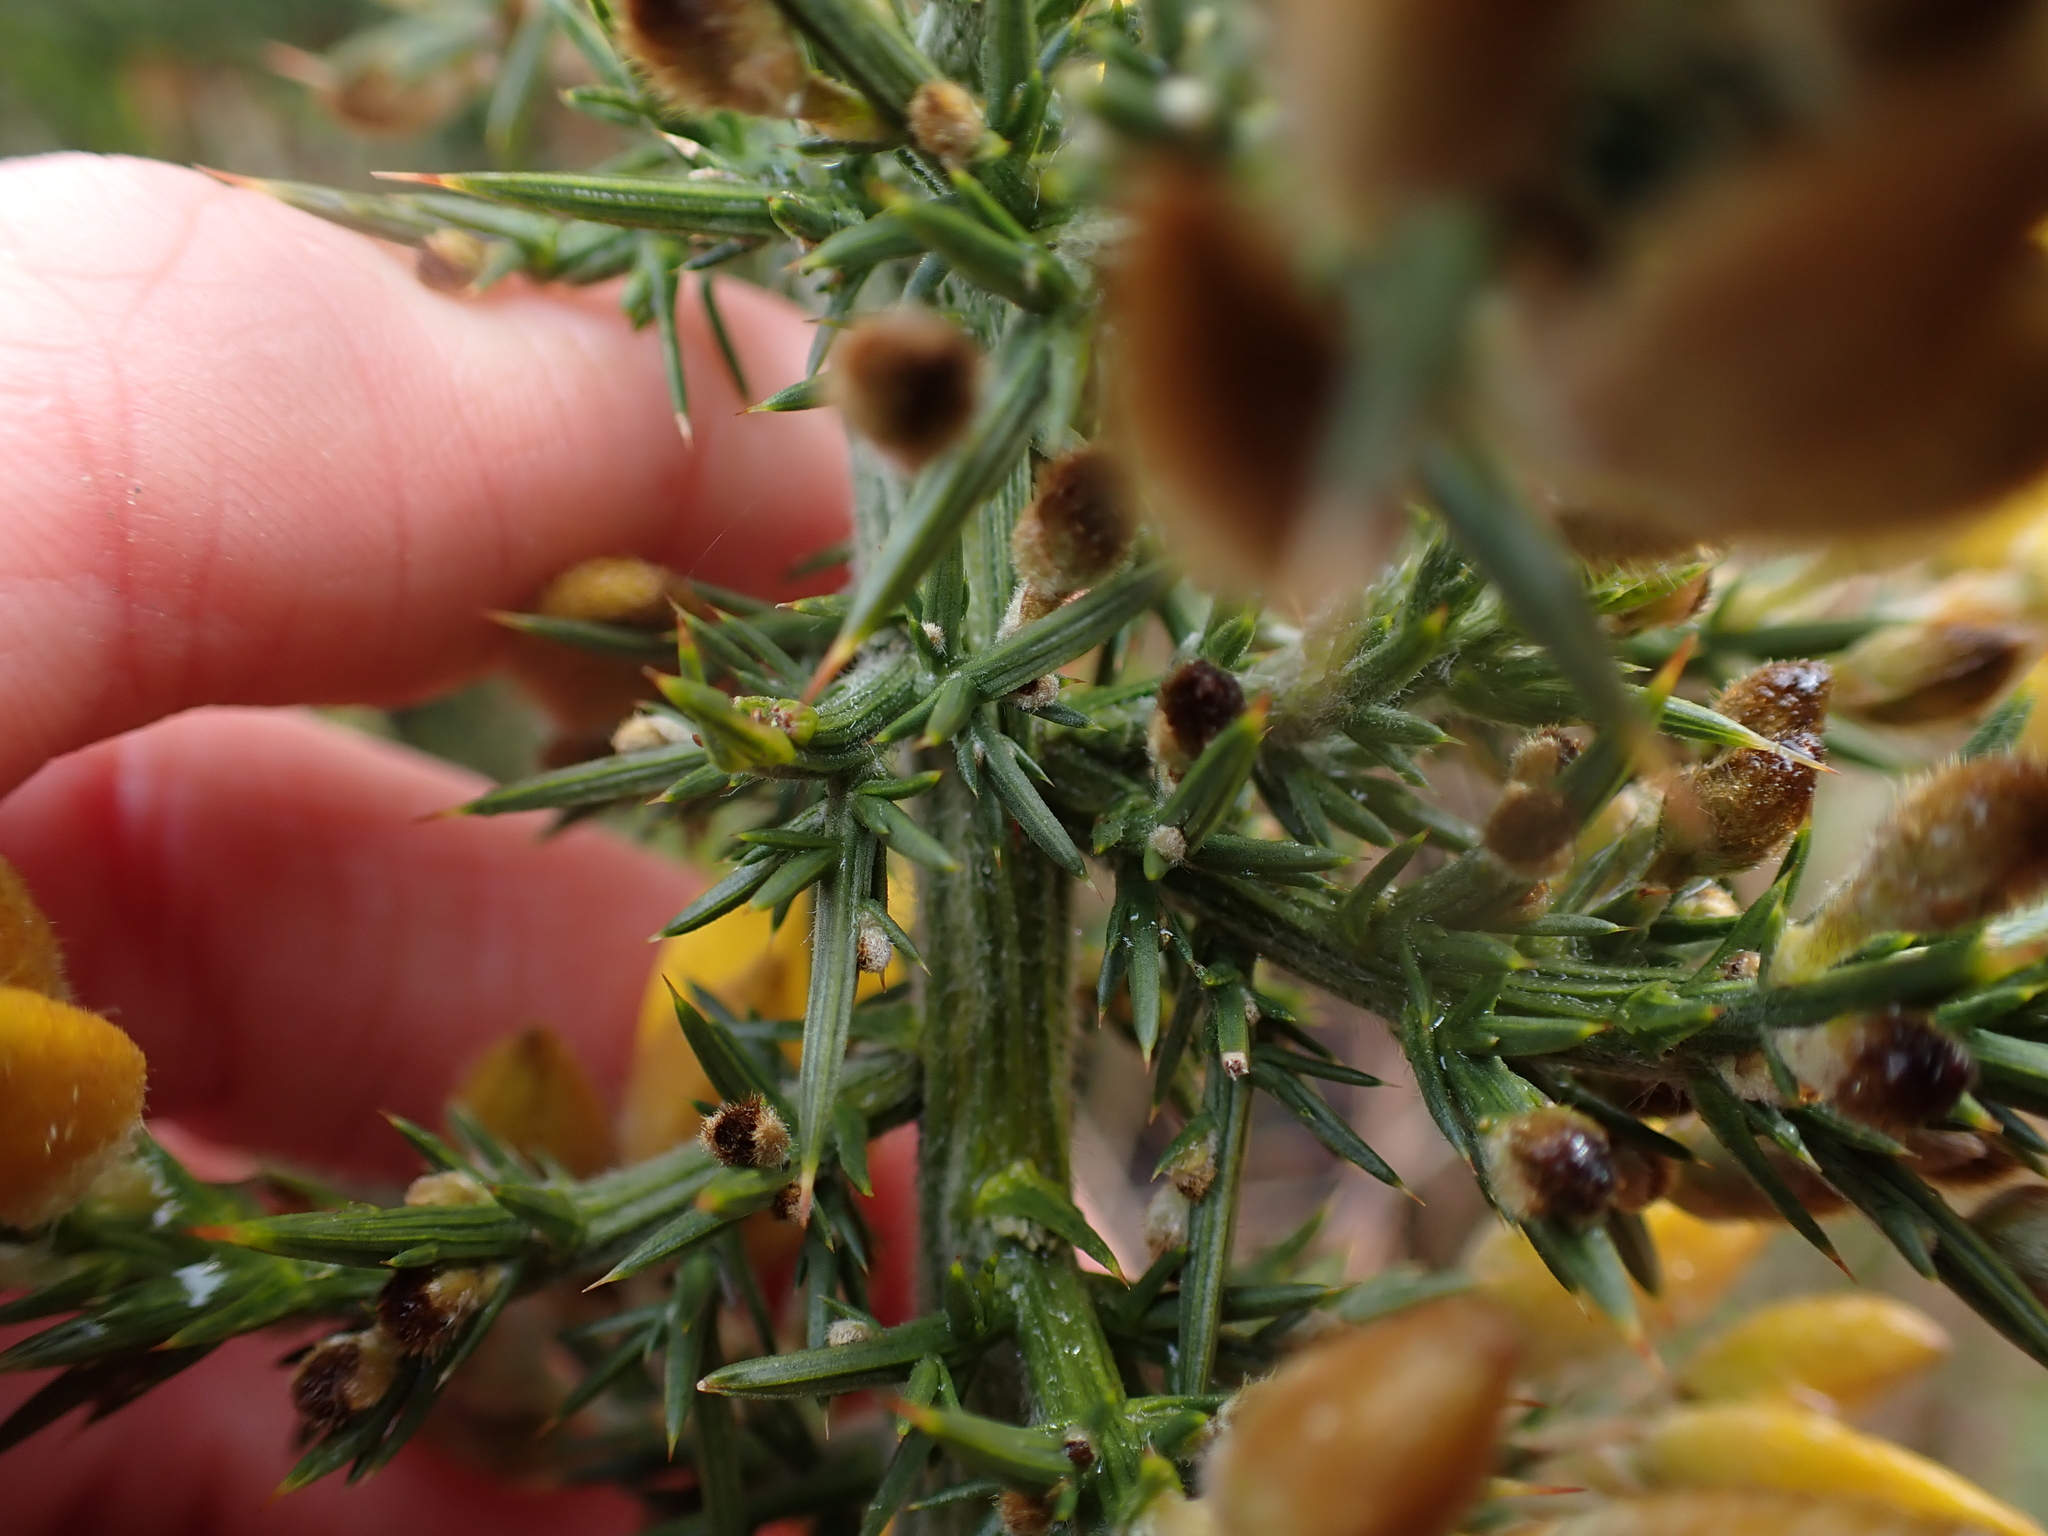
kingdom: Plantae
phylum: Tracheophyta
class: Magnoliopsida
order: Fabales
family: Fabaceae
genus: Ulex
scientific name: Ulex europaeus
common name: Common gorse
